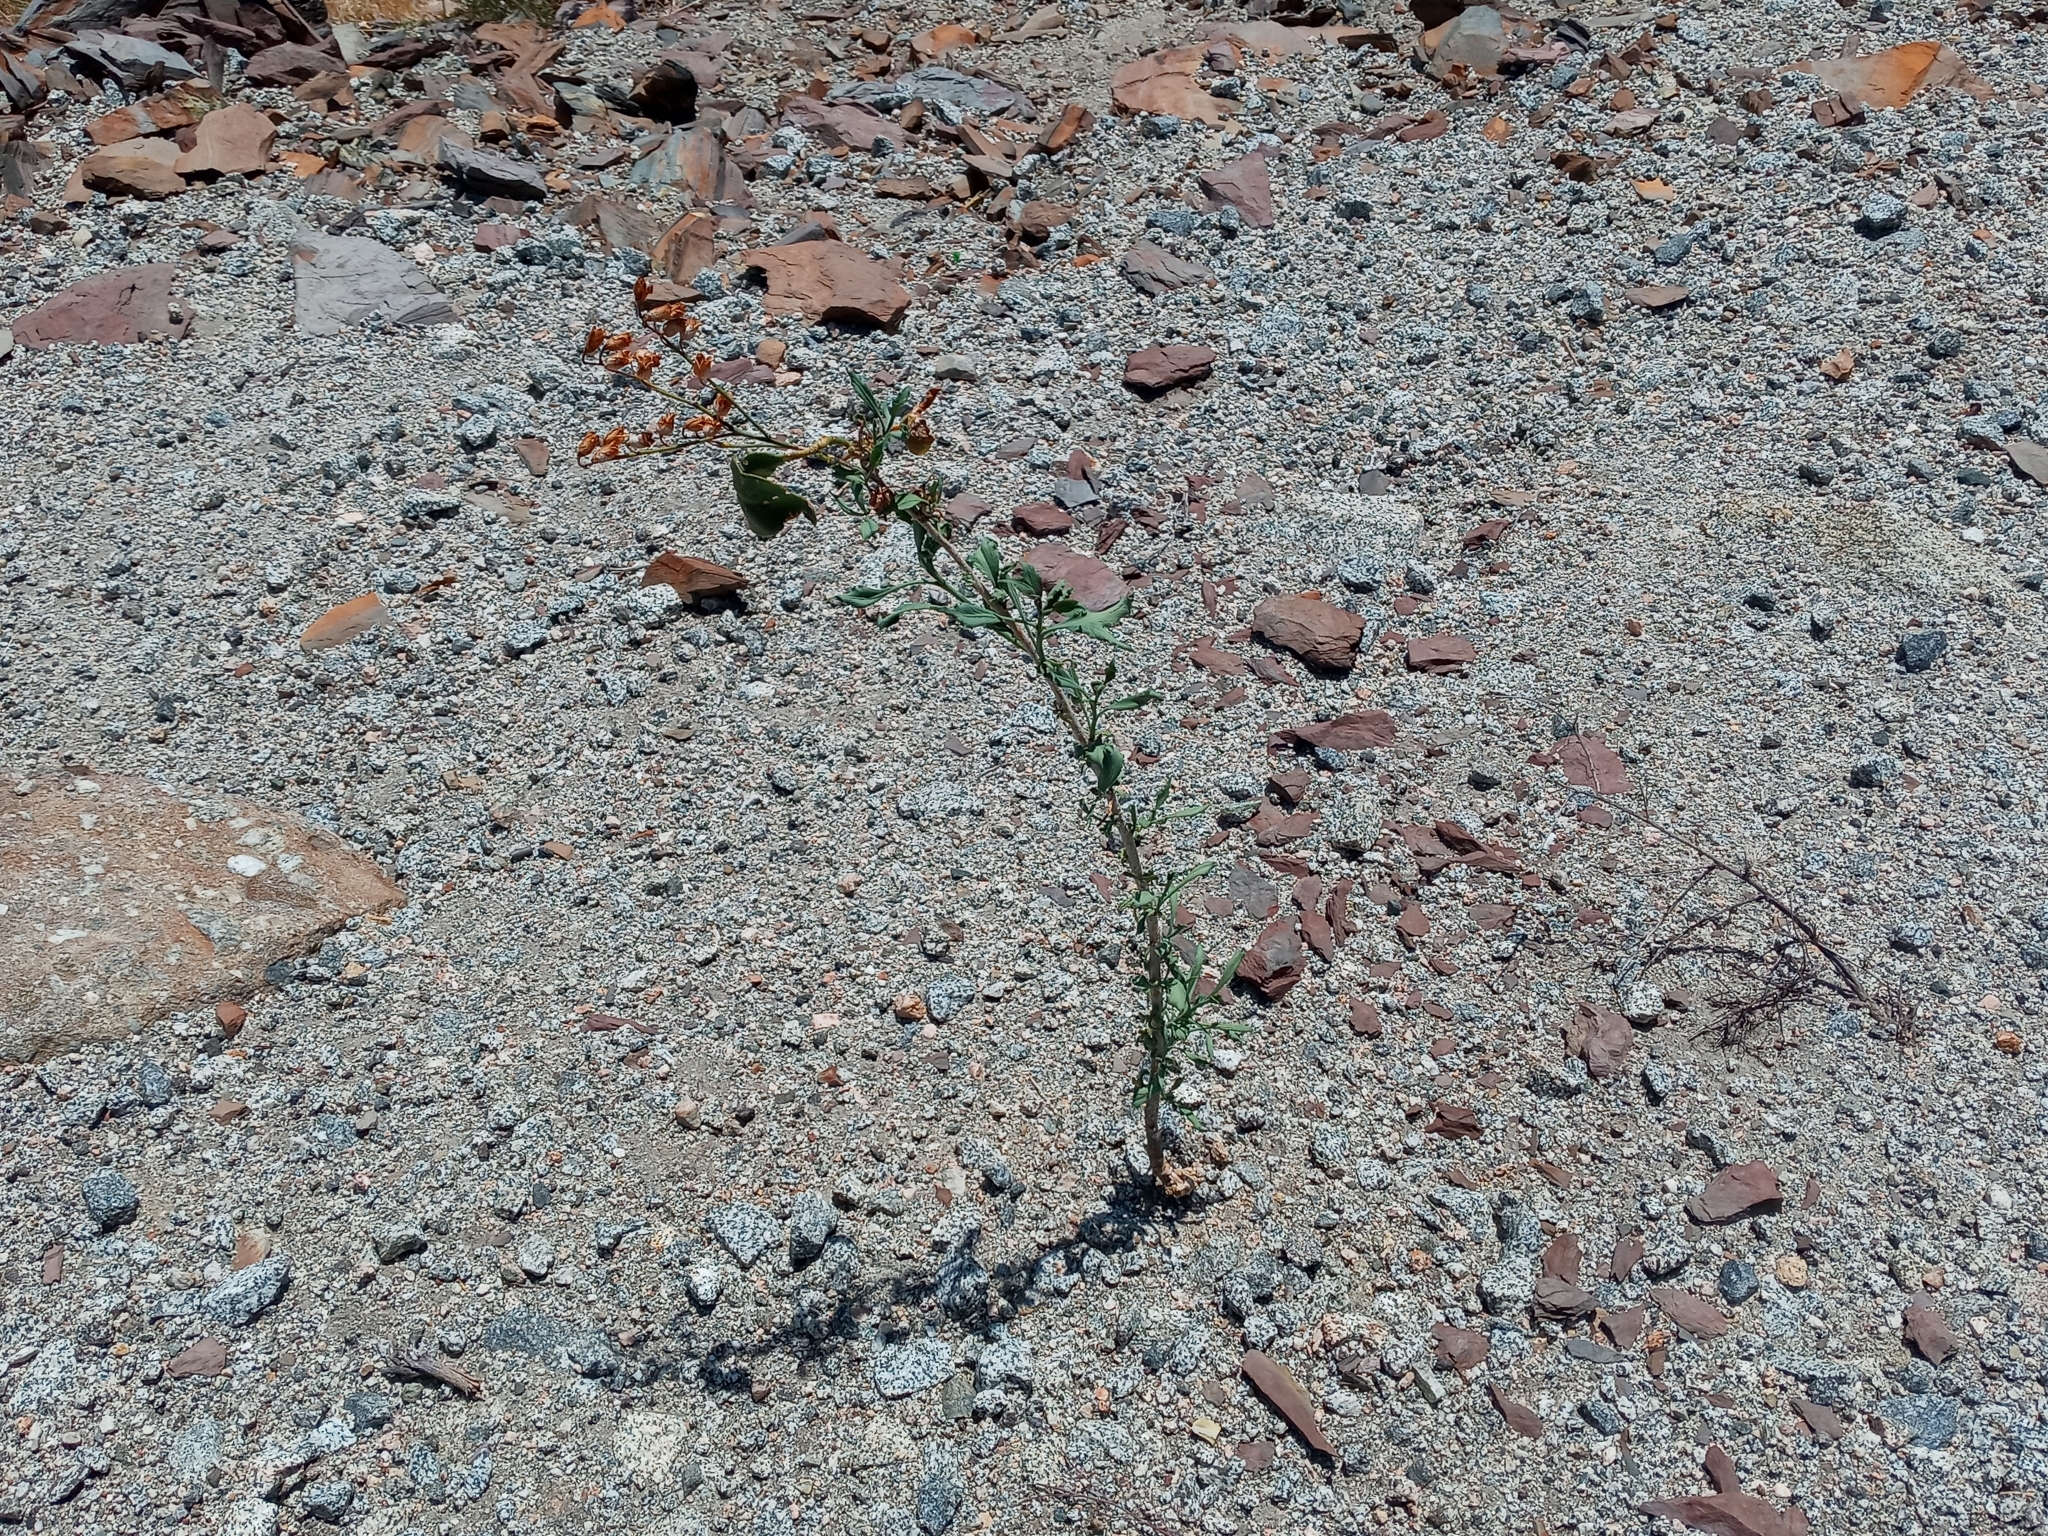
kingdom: Plantae
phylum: Tracheophyta
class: Magnoliopsida
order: Solanales
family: Solanaceae
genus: Nicotiana
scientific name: Nicotiana glauca
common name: Tree tobacco
